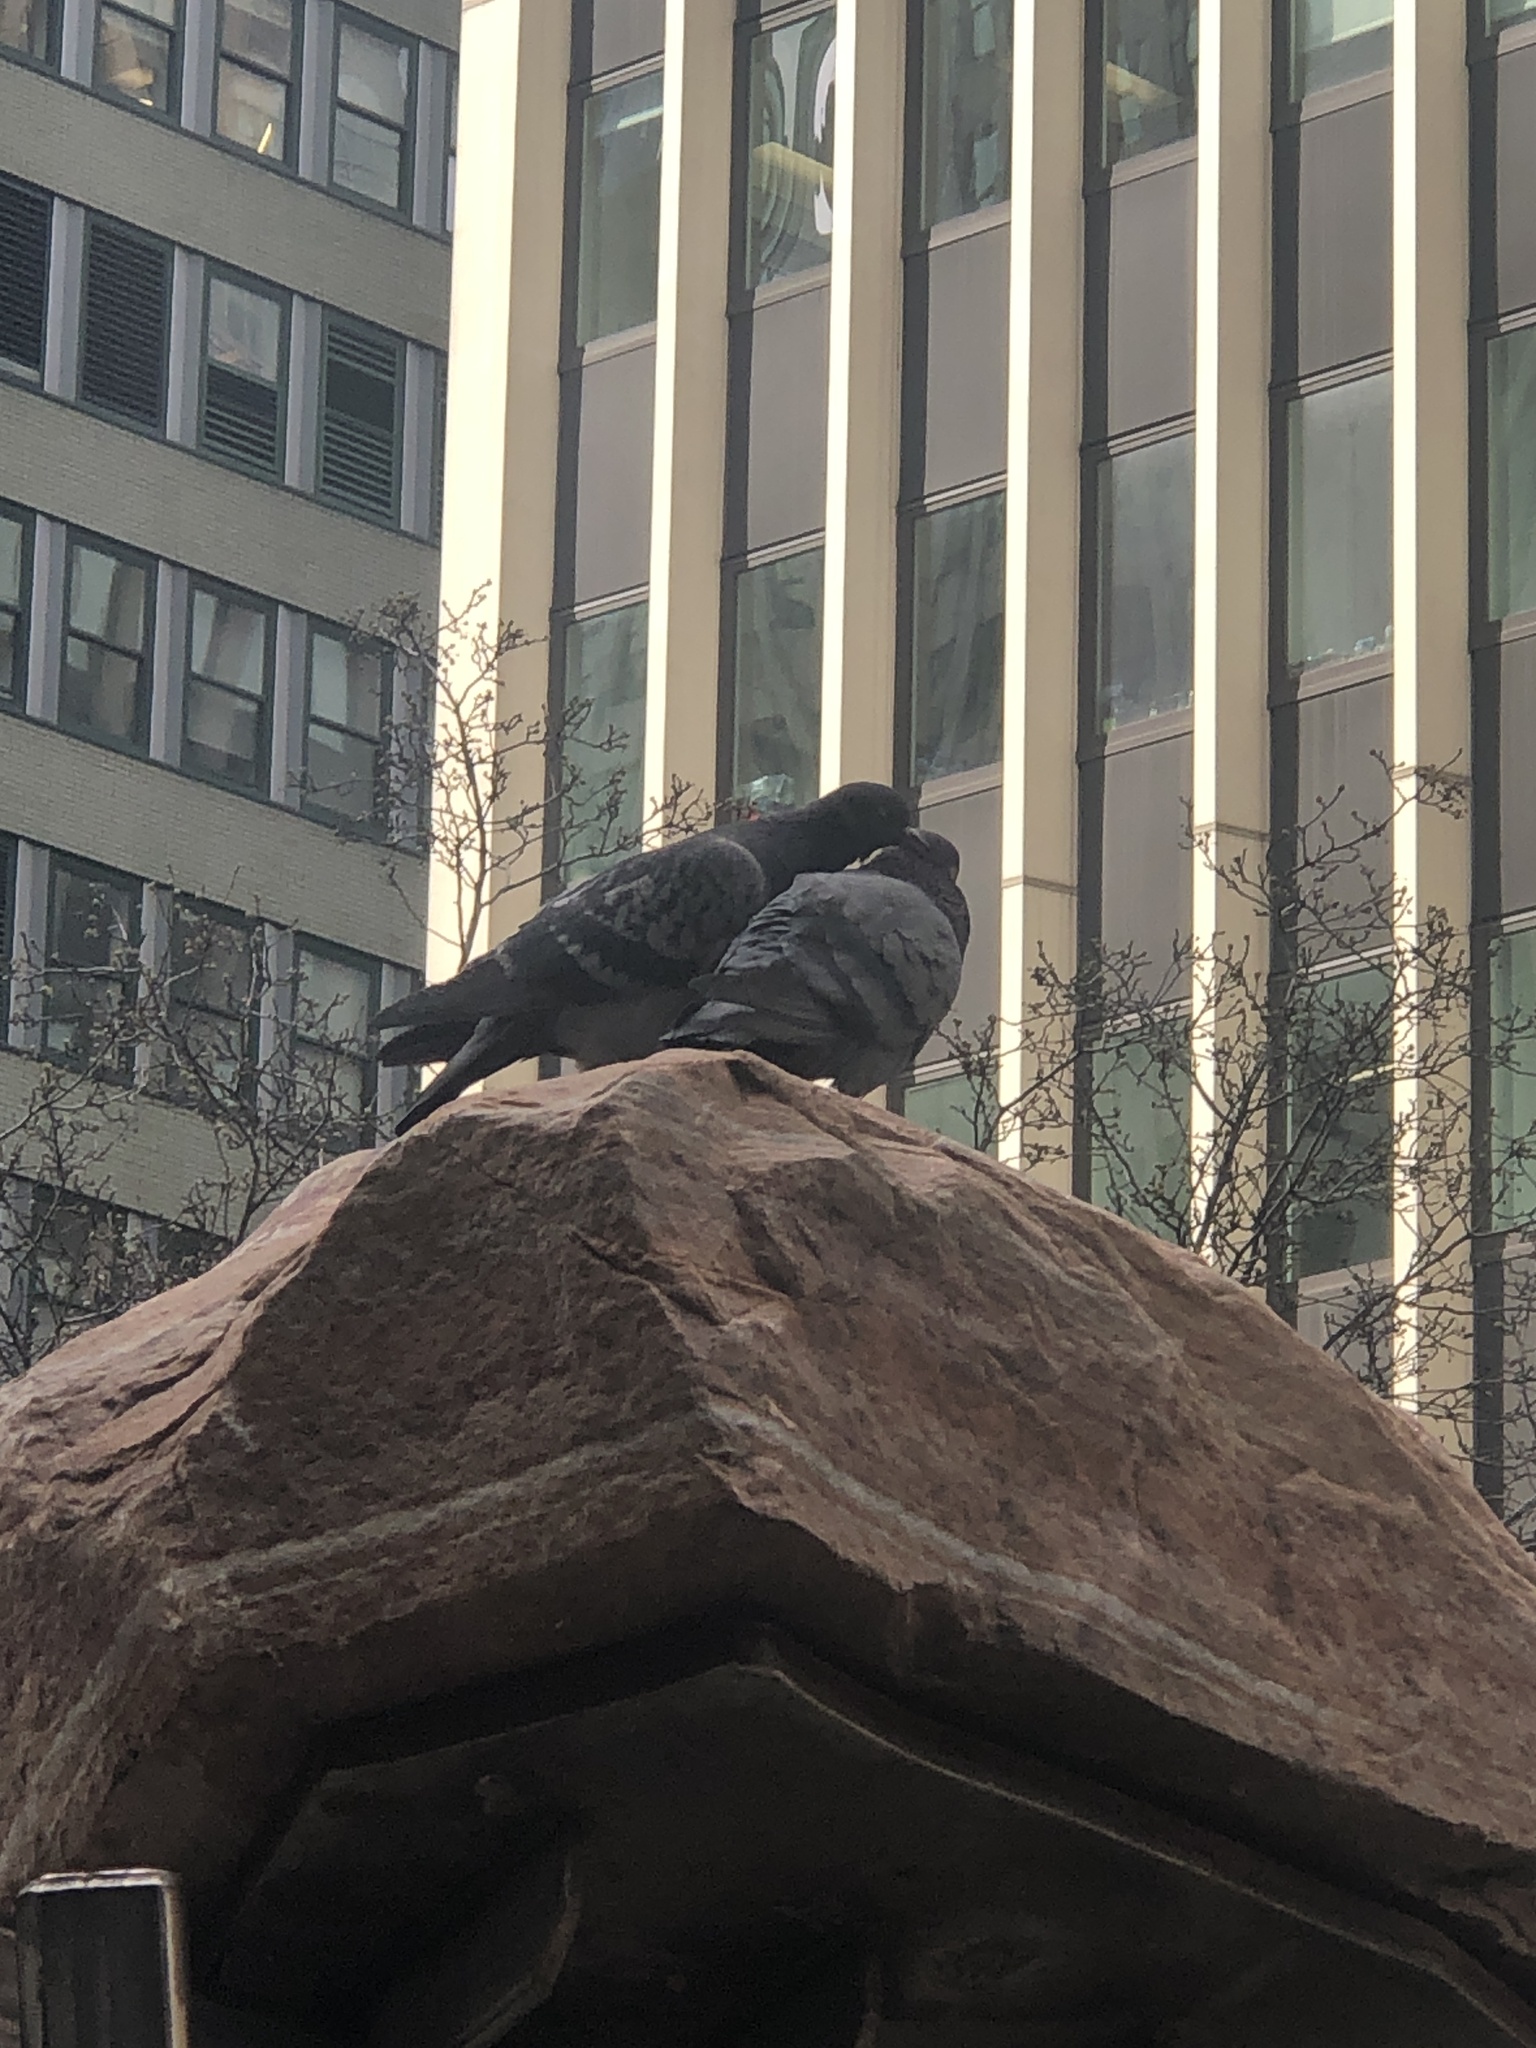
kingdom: Animalia
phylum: Chordata
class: Aves
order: Columbiformes
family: Columbidae
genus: Columba
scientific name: Columba livia
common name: Rock pigeon
